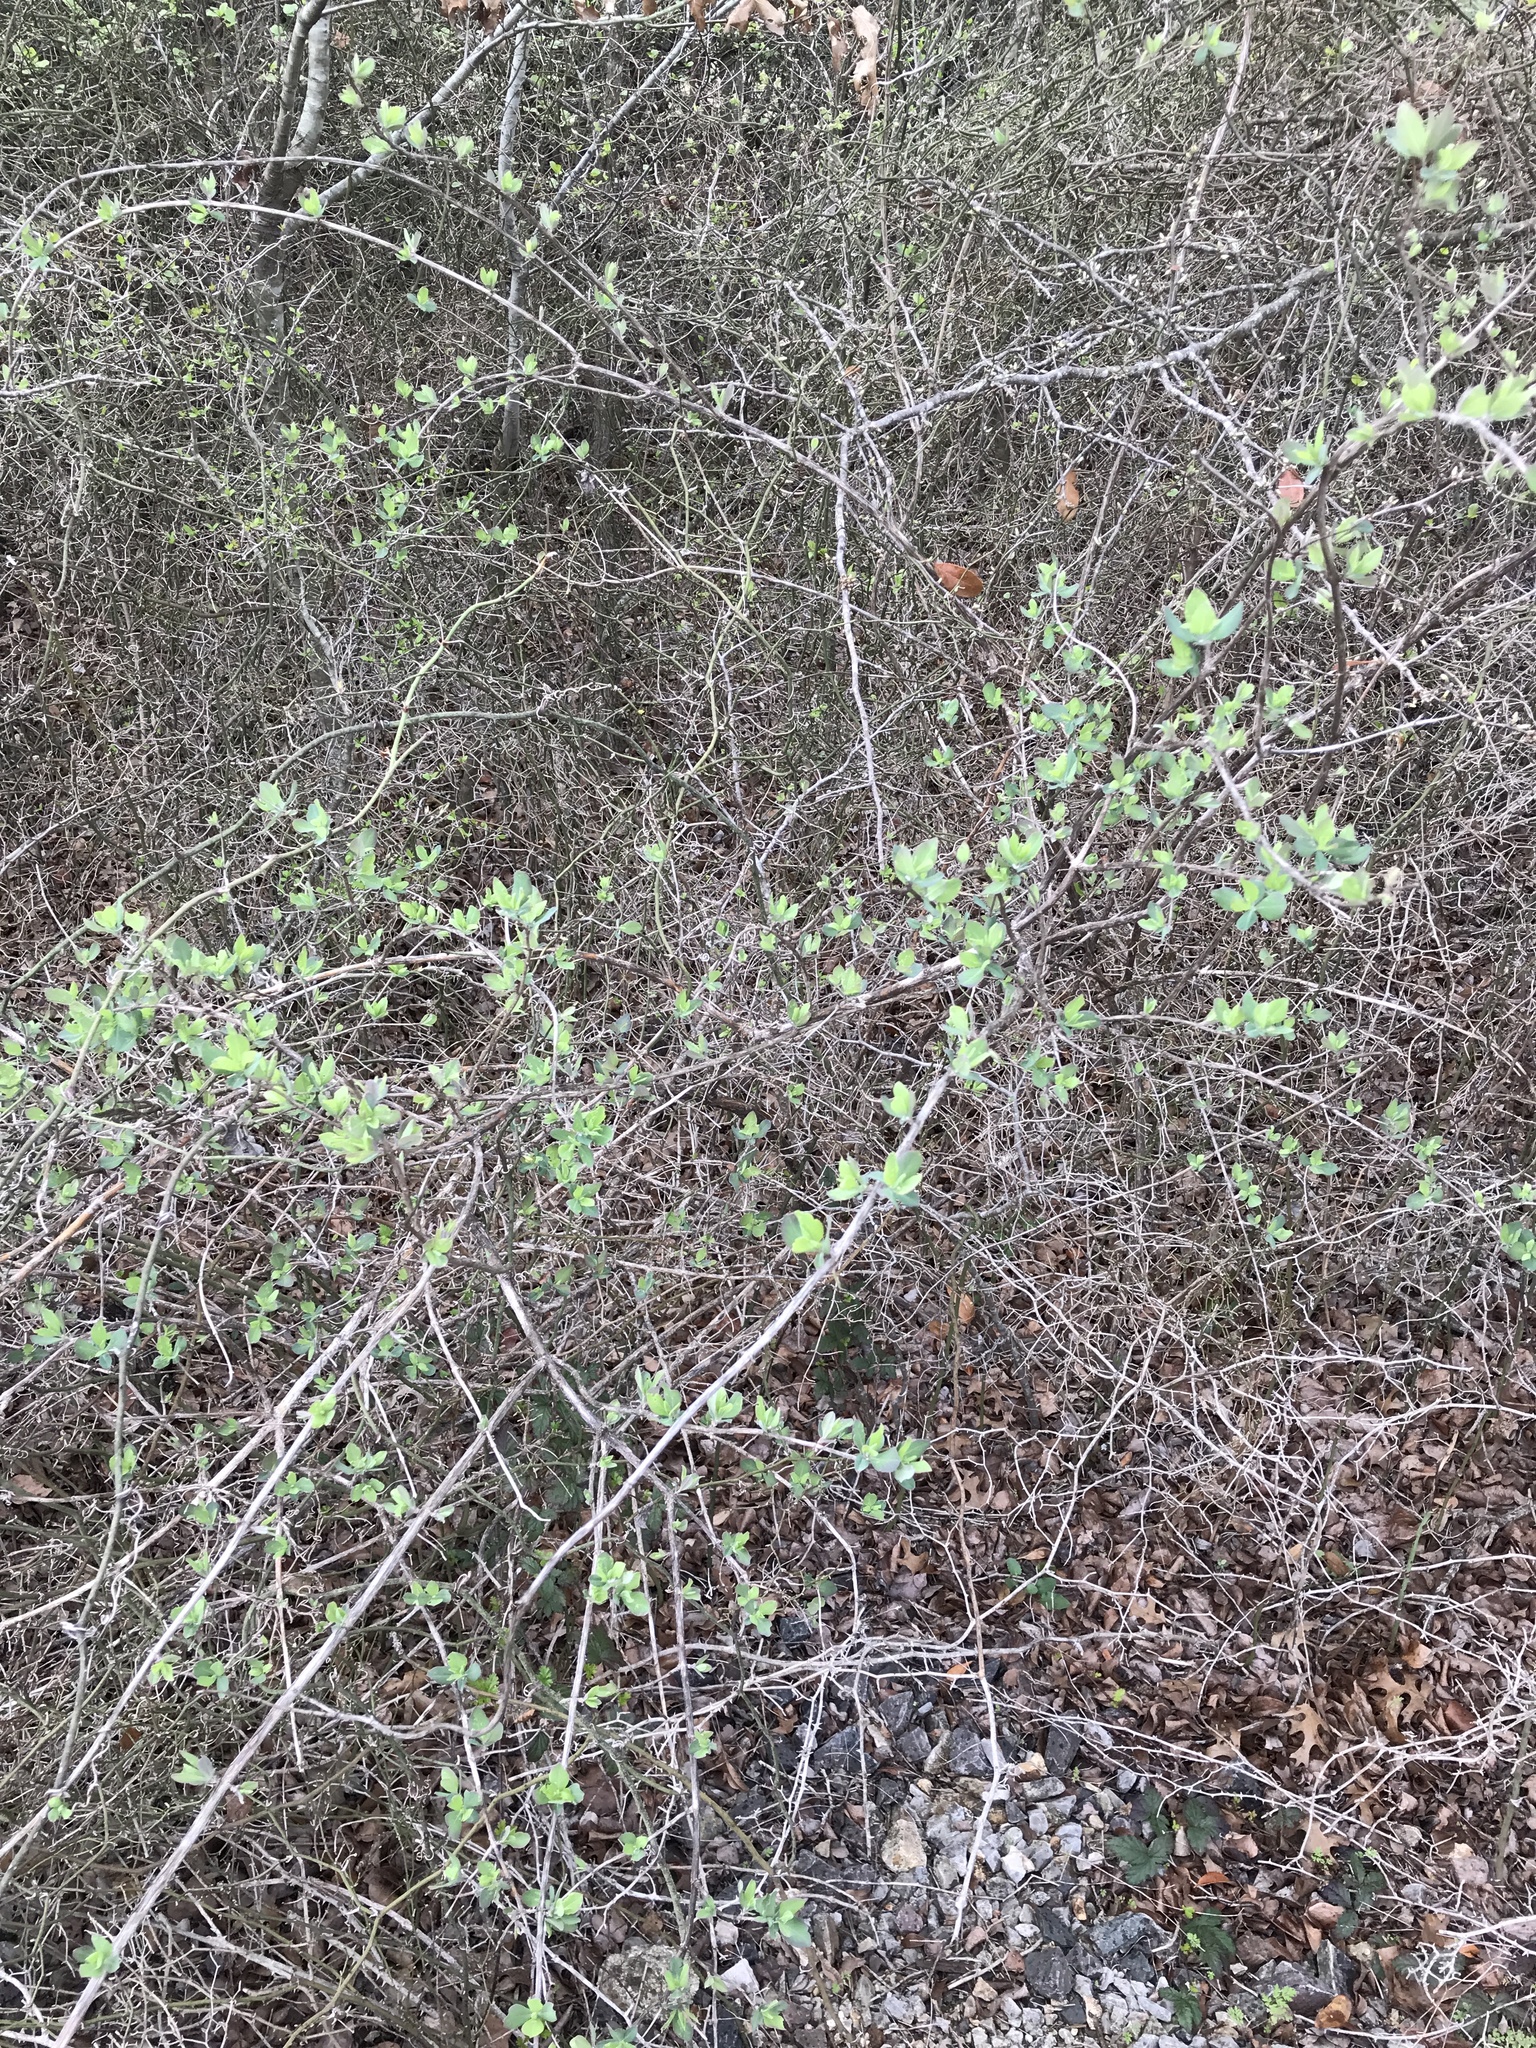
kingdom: Plantae
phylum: Tracheophyta
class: Magnoliopsida
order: Dipsacales
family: Caprifoliaceae
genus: Lonicera
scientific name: Lonicera albiflora
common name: White honeysuckle
